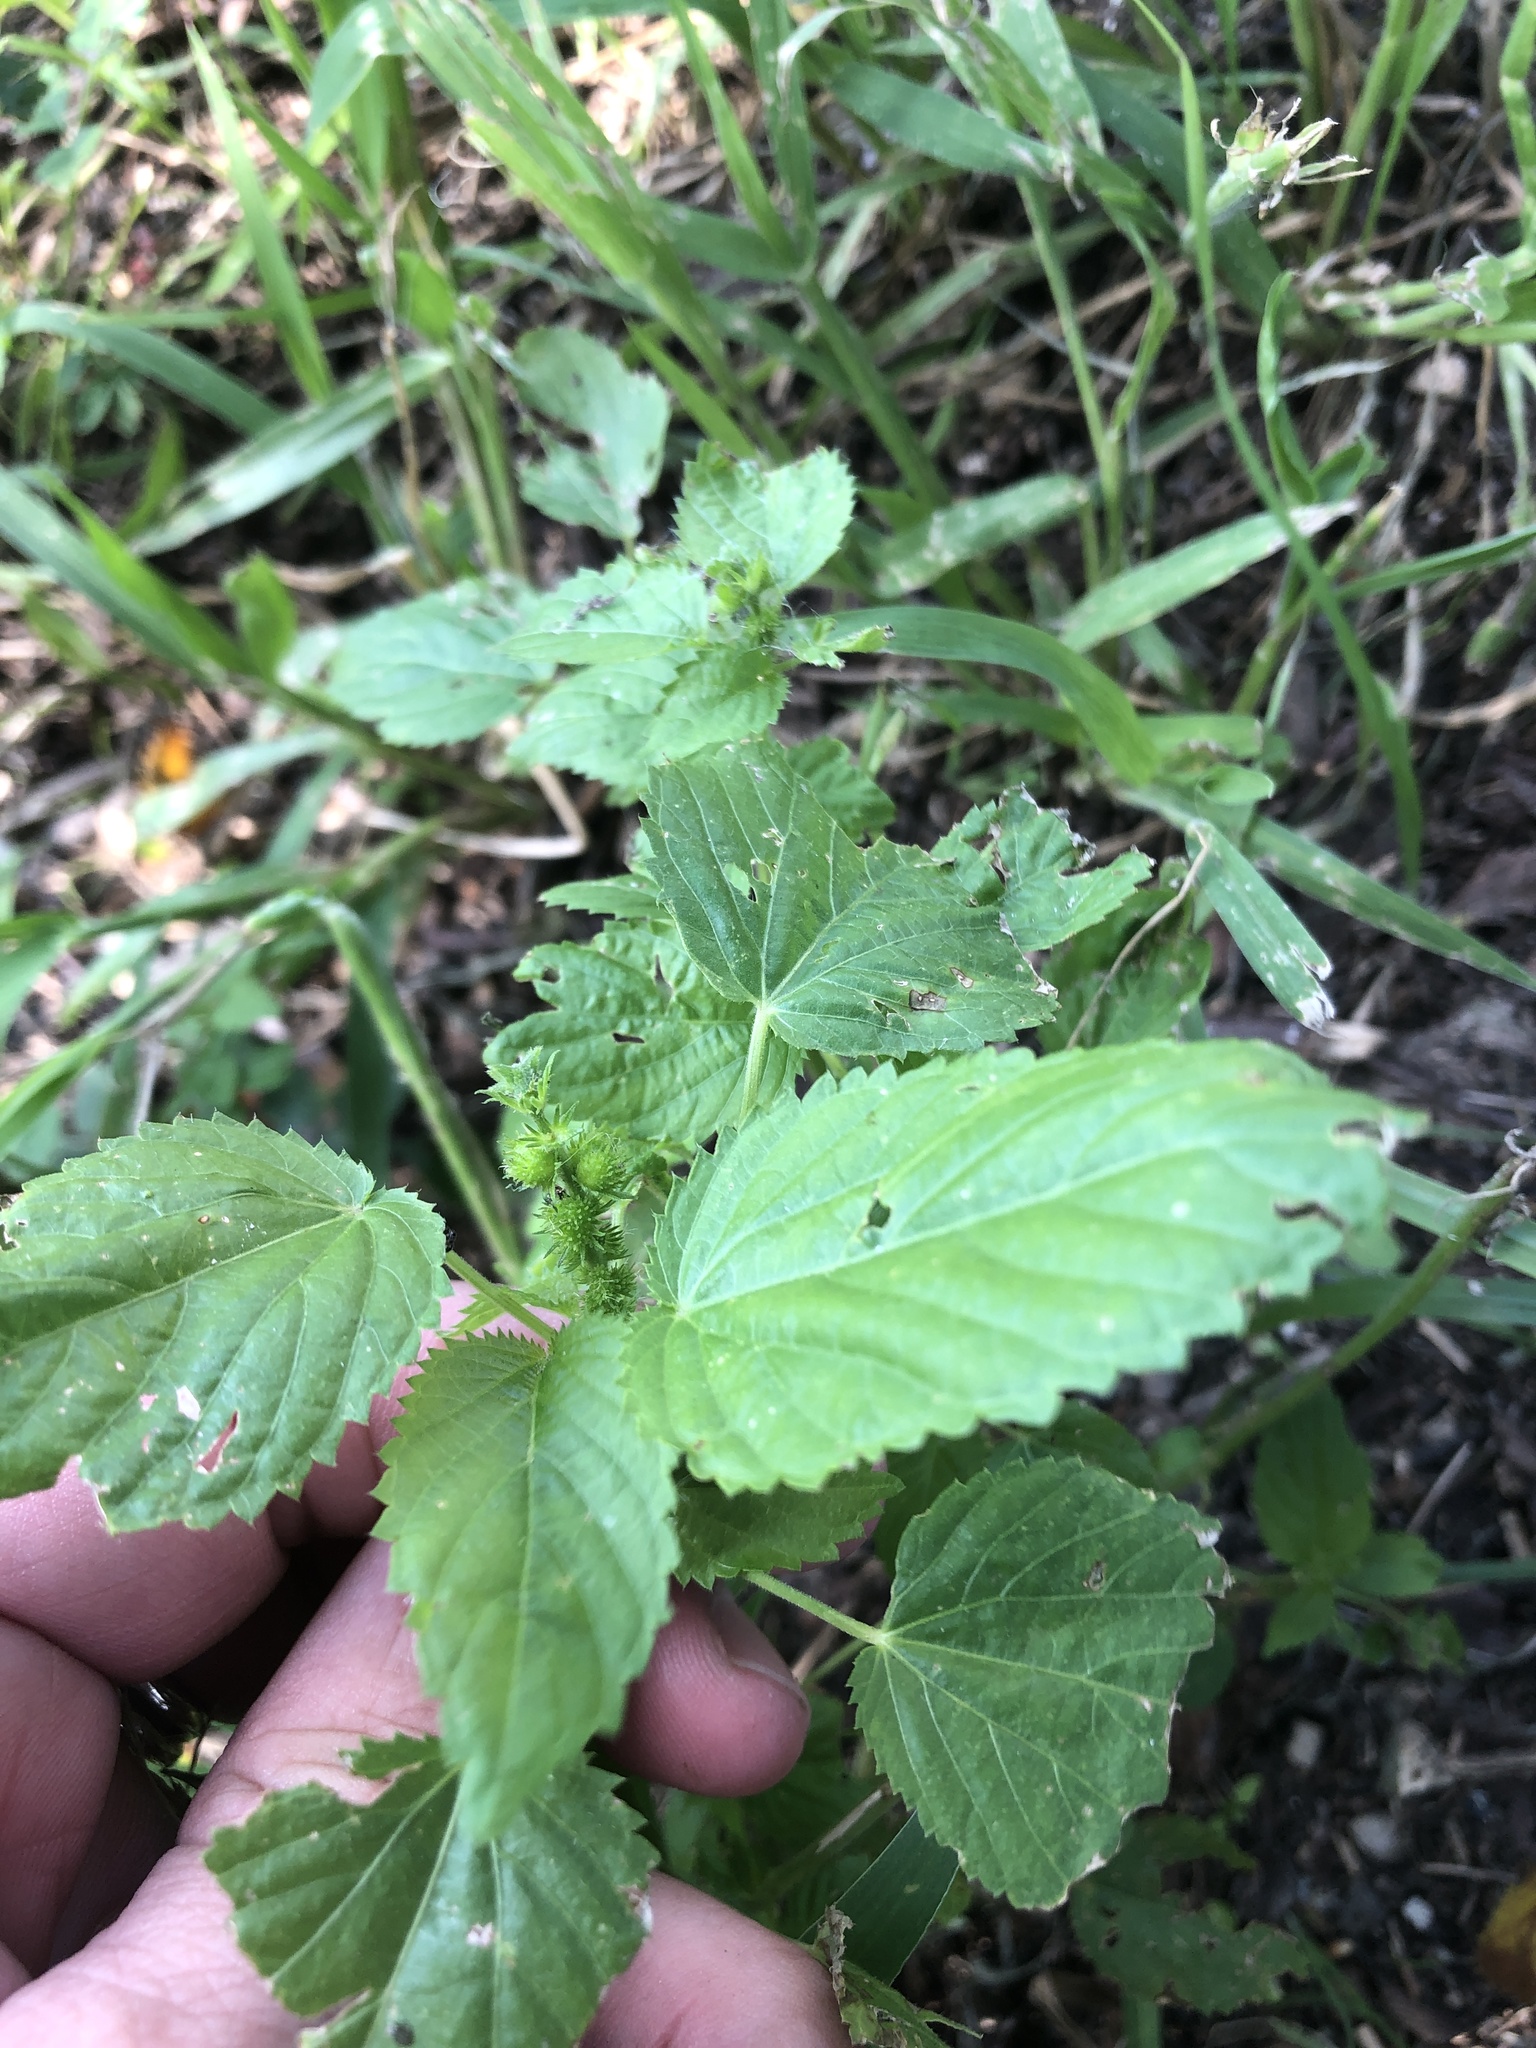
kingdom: Plantae
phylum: Tracheophyta
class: Magnoliopsida
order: Malpighiales
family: Euphorbiaceae
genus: Acalypha
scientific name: Acalypha ostryifolia
